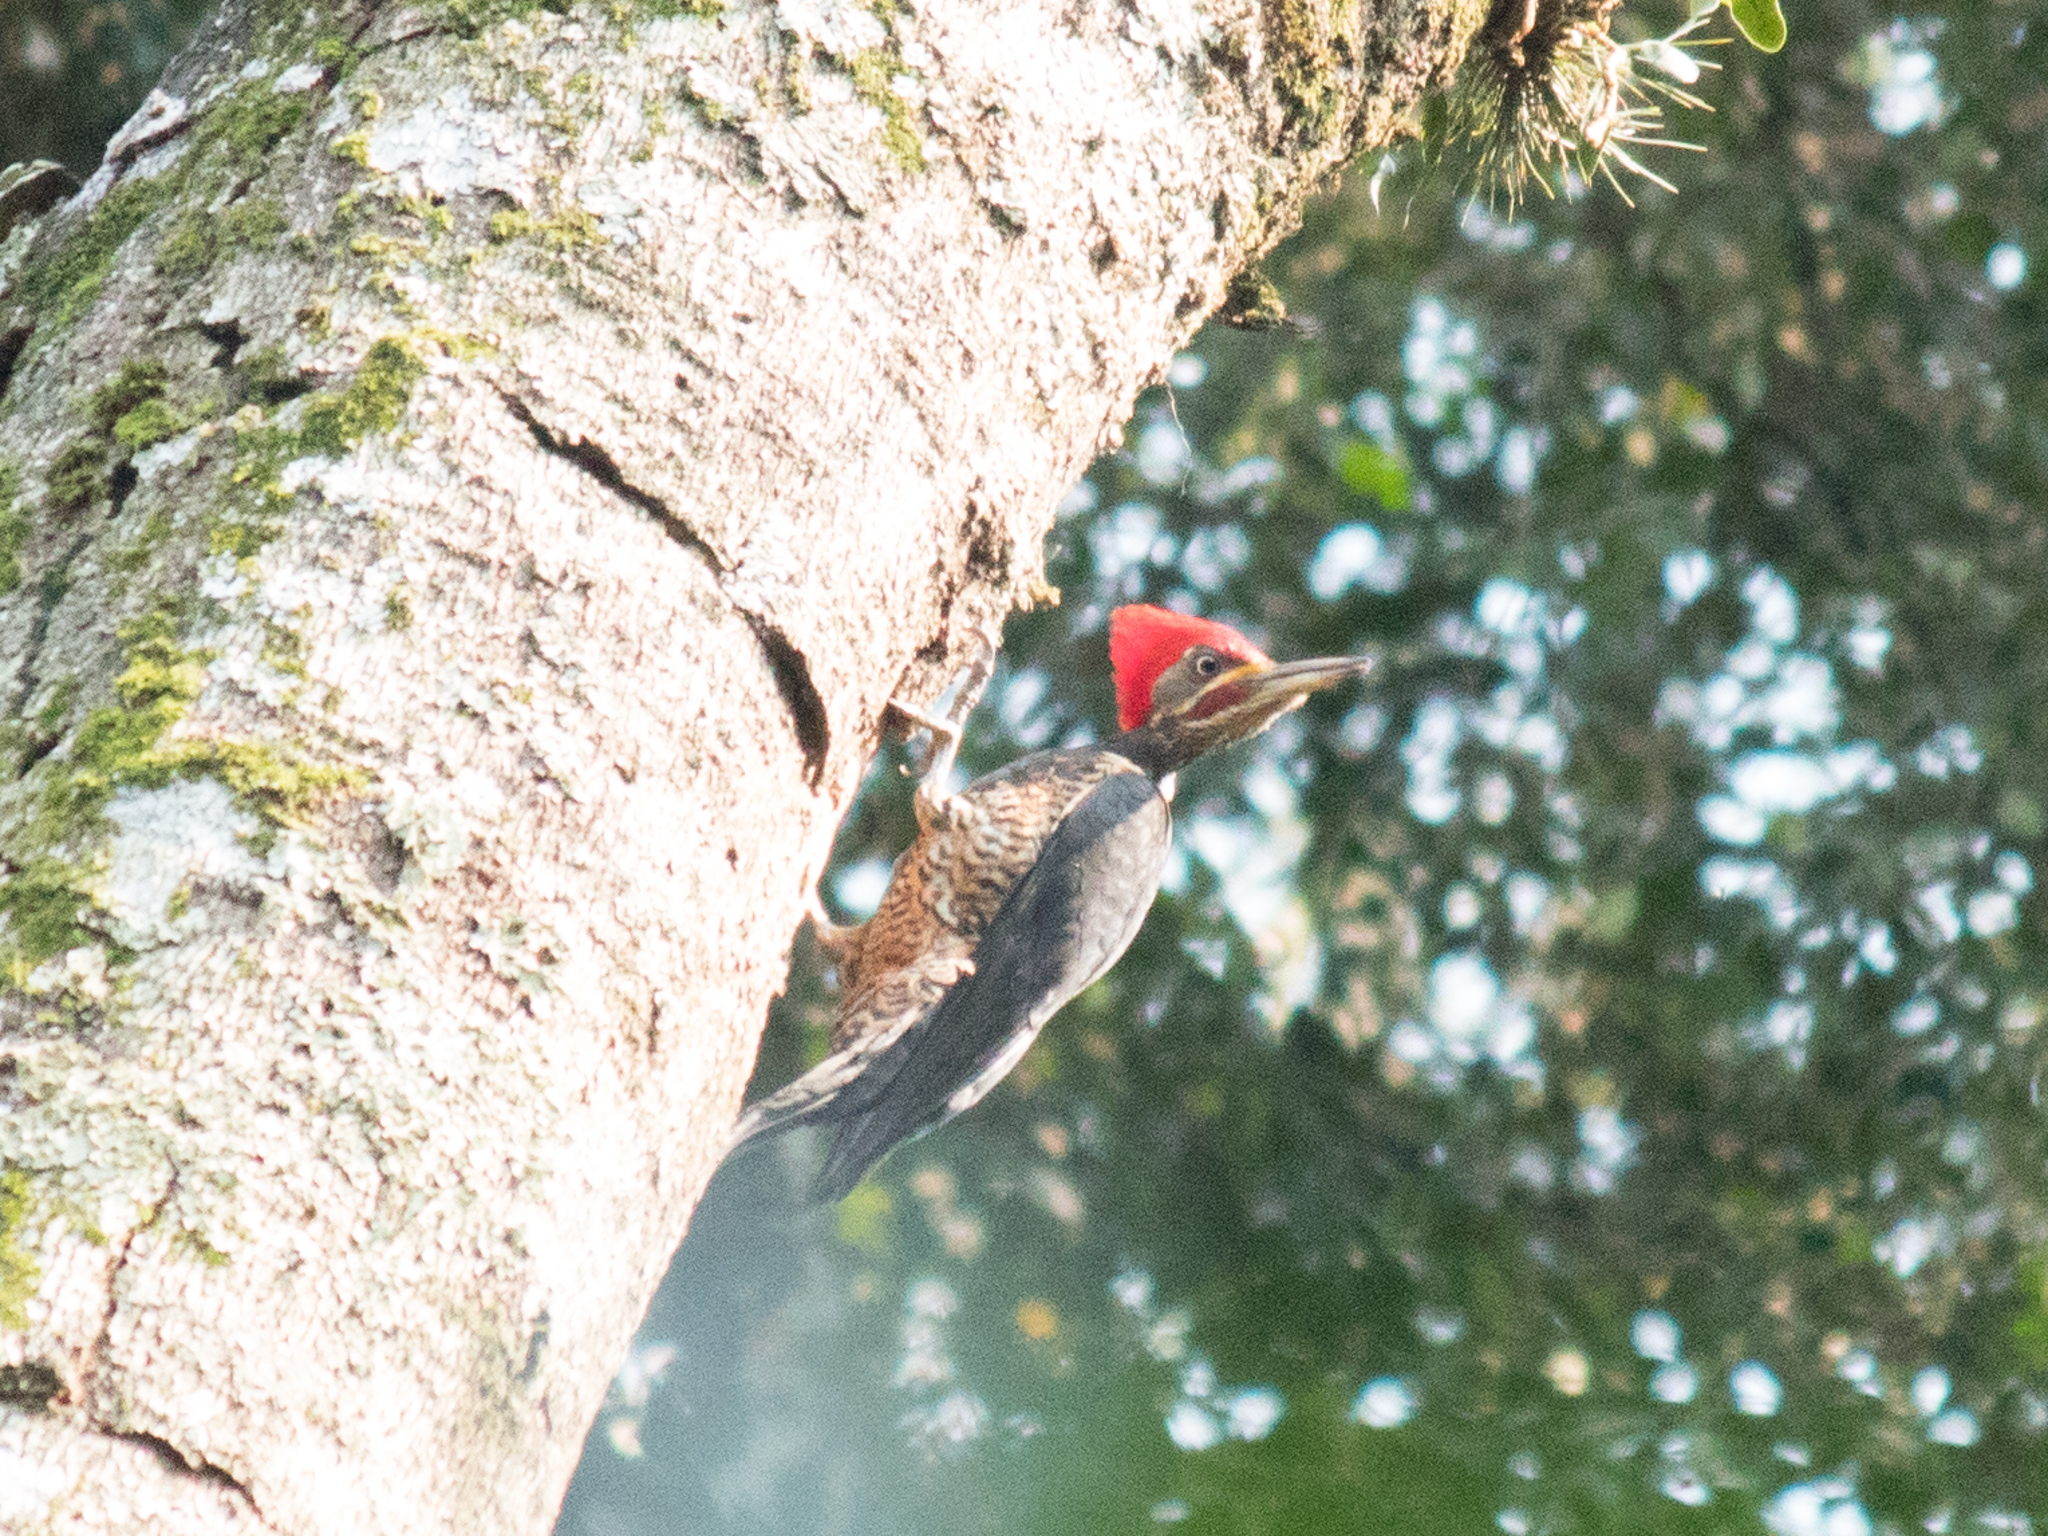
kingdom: Animalia
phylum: Chordata
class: Aves
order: Piciformes
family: Picidae
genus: Dryocopus
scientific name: Dryocopus lineatus
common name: Lineated woodpecker
